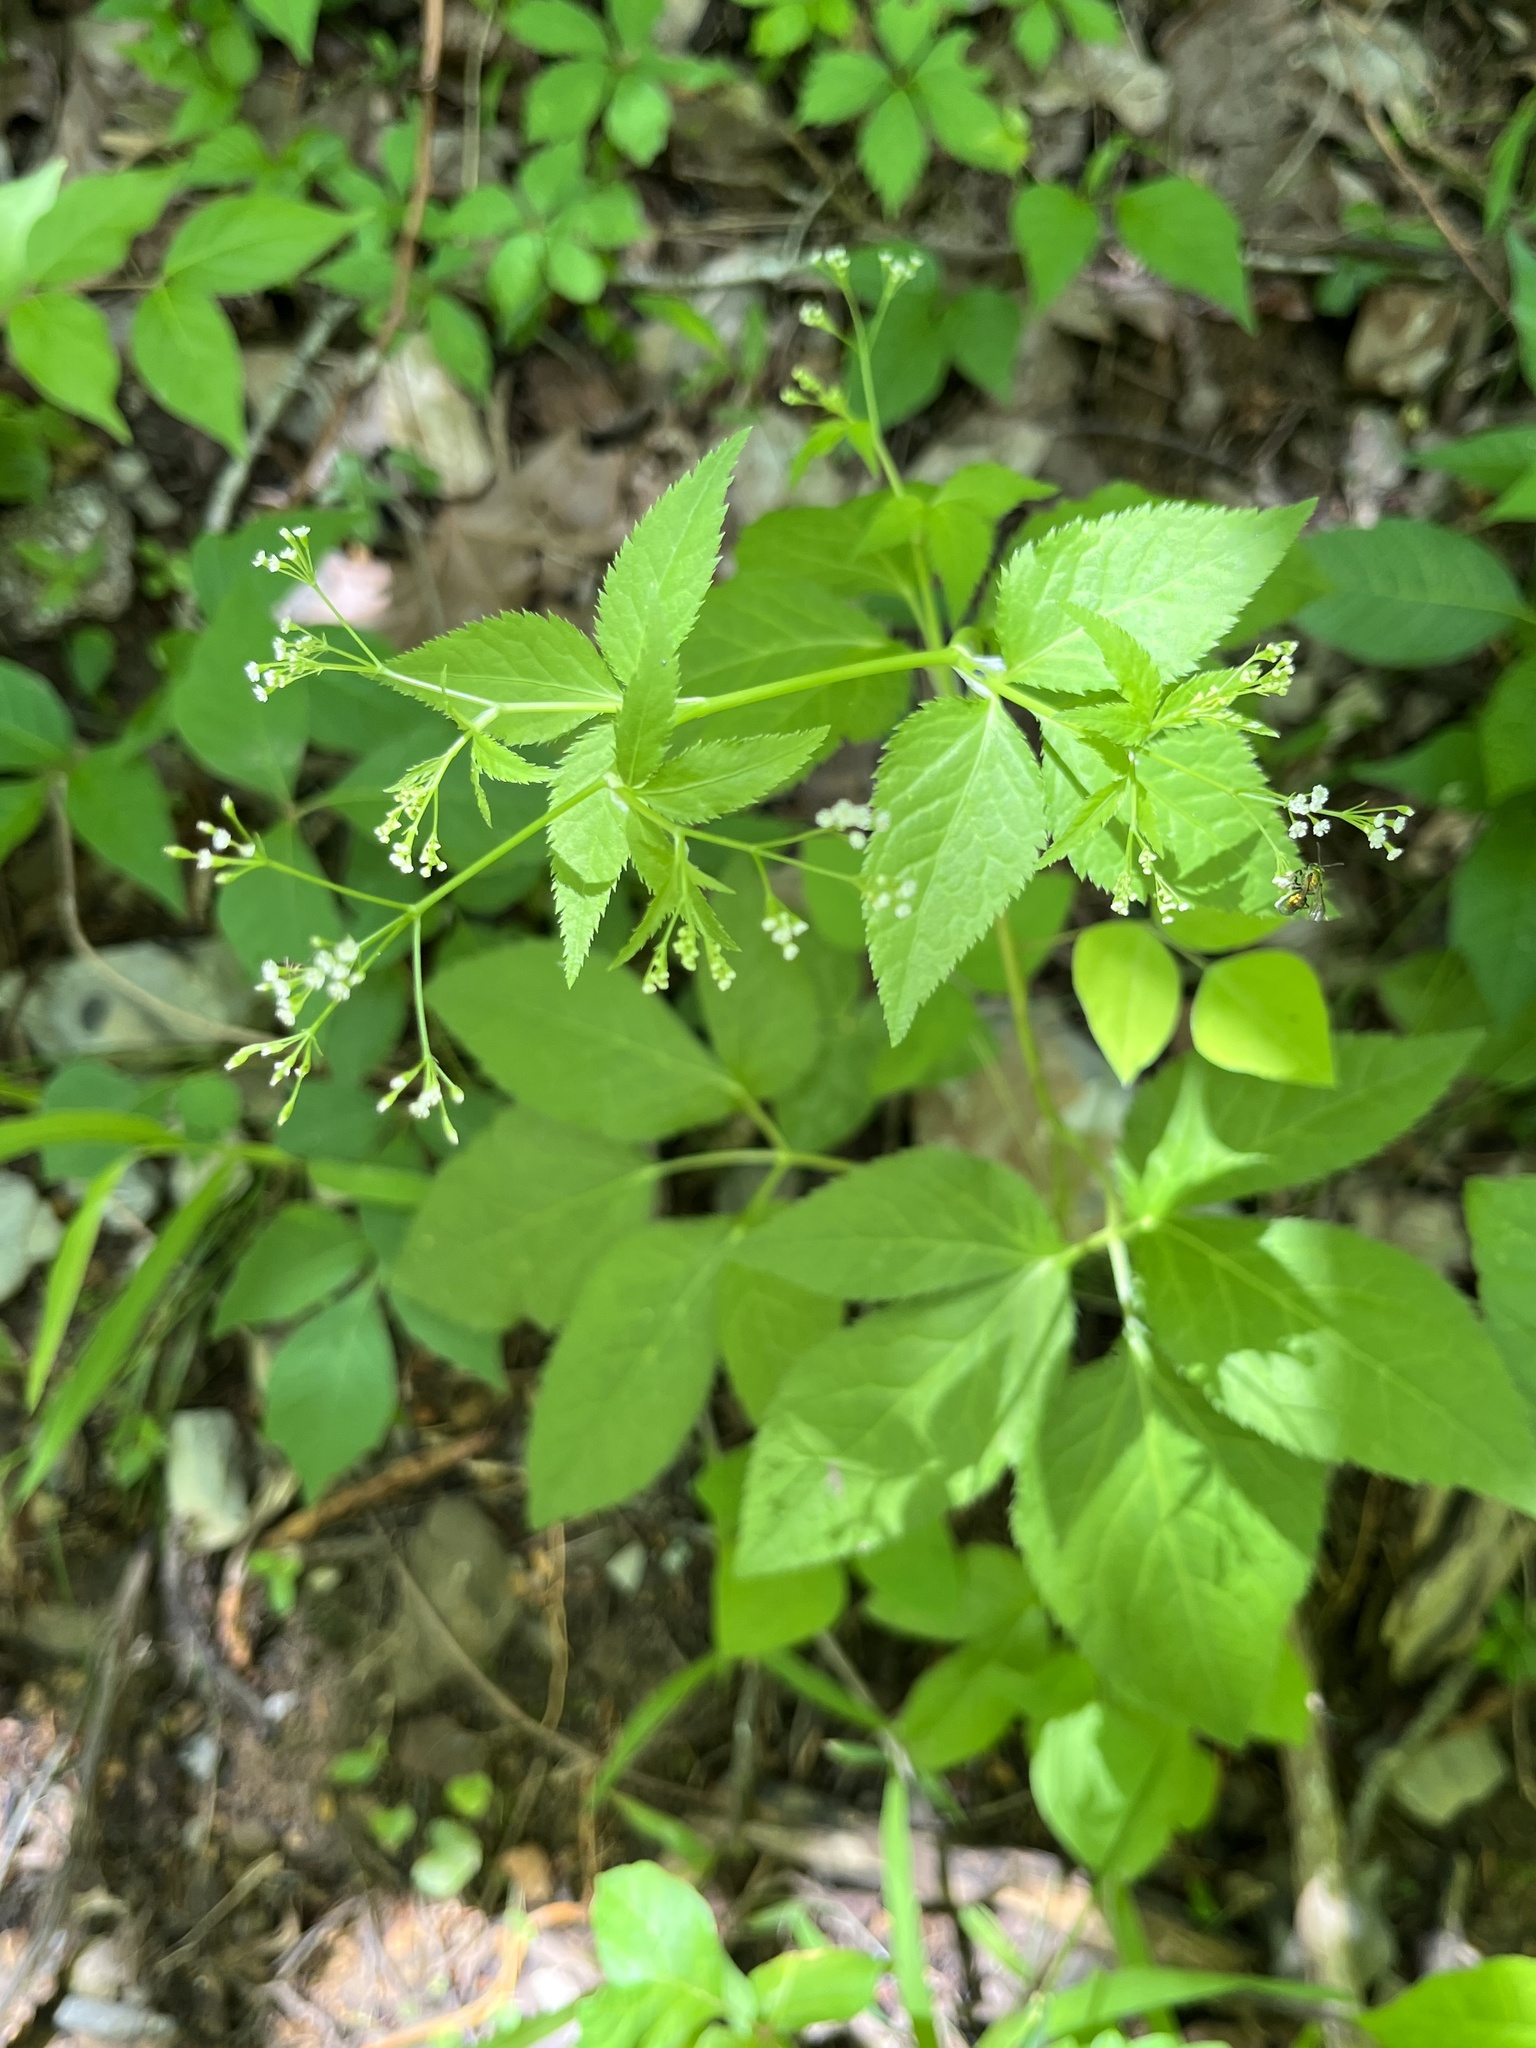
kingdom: Plantae
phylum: Tracheophyta
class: Magnoliopsida
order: Apiales
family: Apiaceae
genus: Cryptotaenia
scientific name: Cryptotaenia canadensis
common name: Honewort
